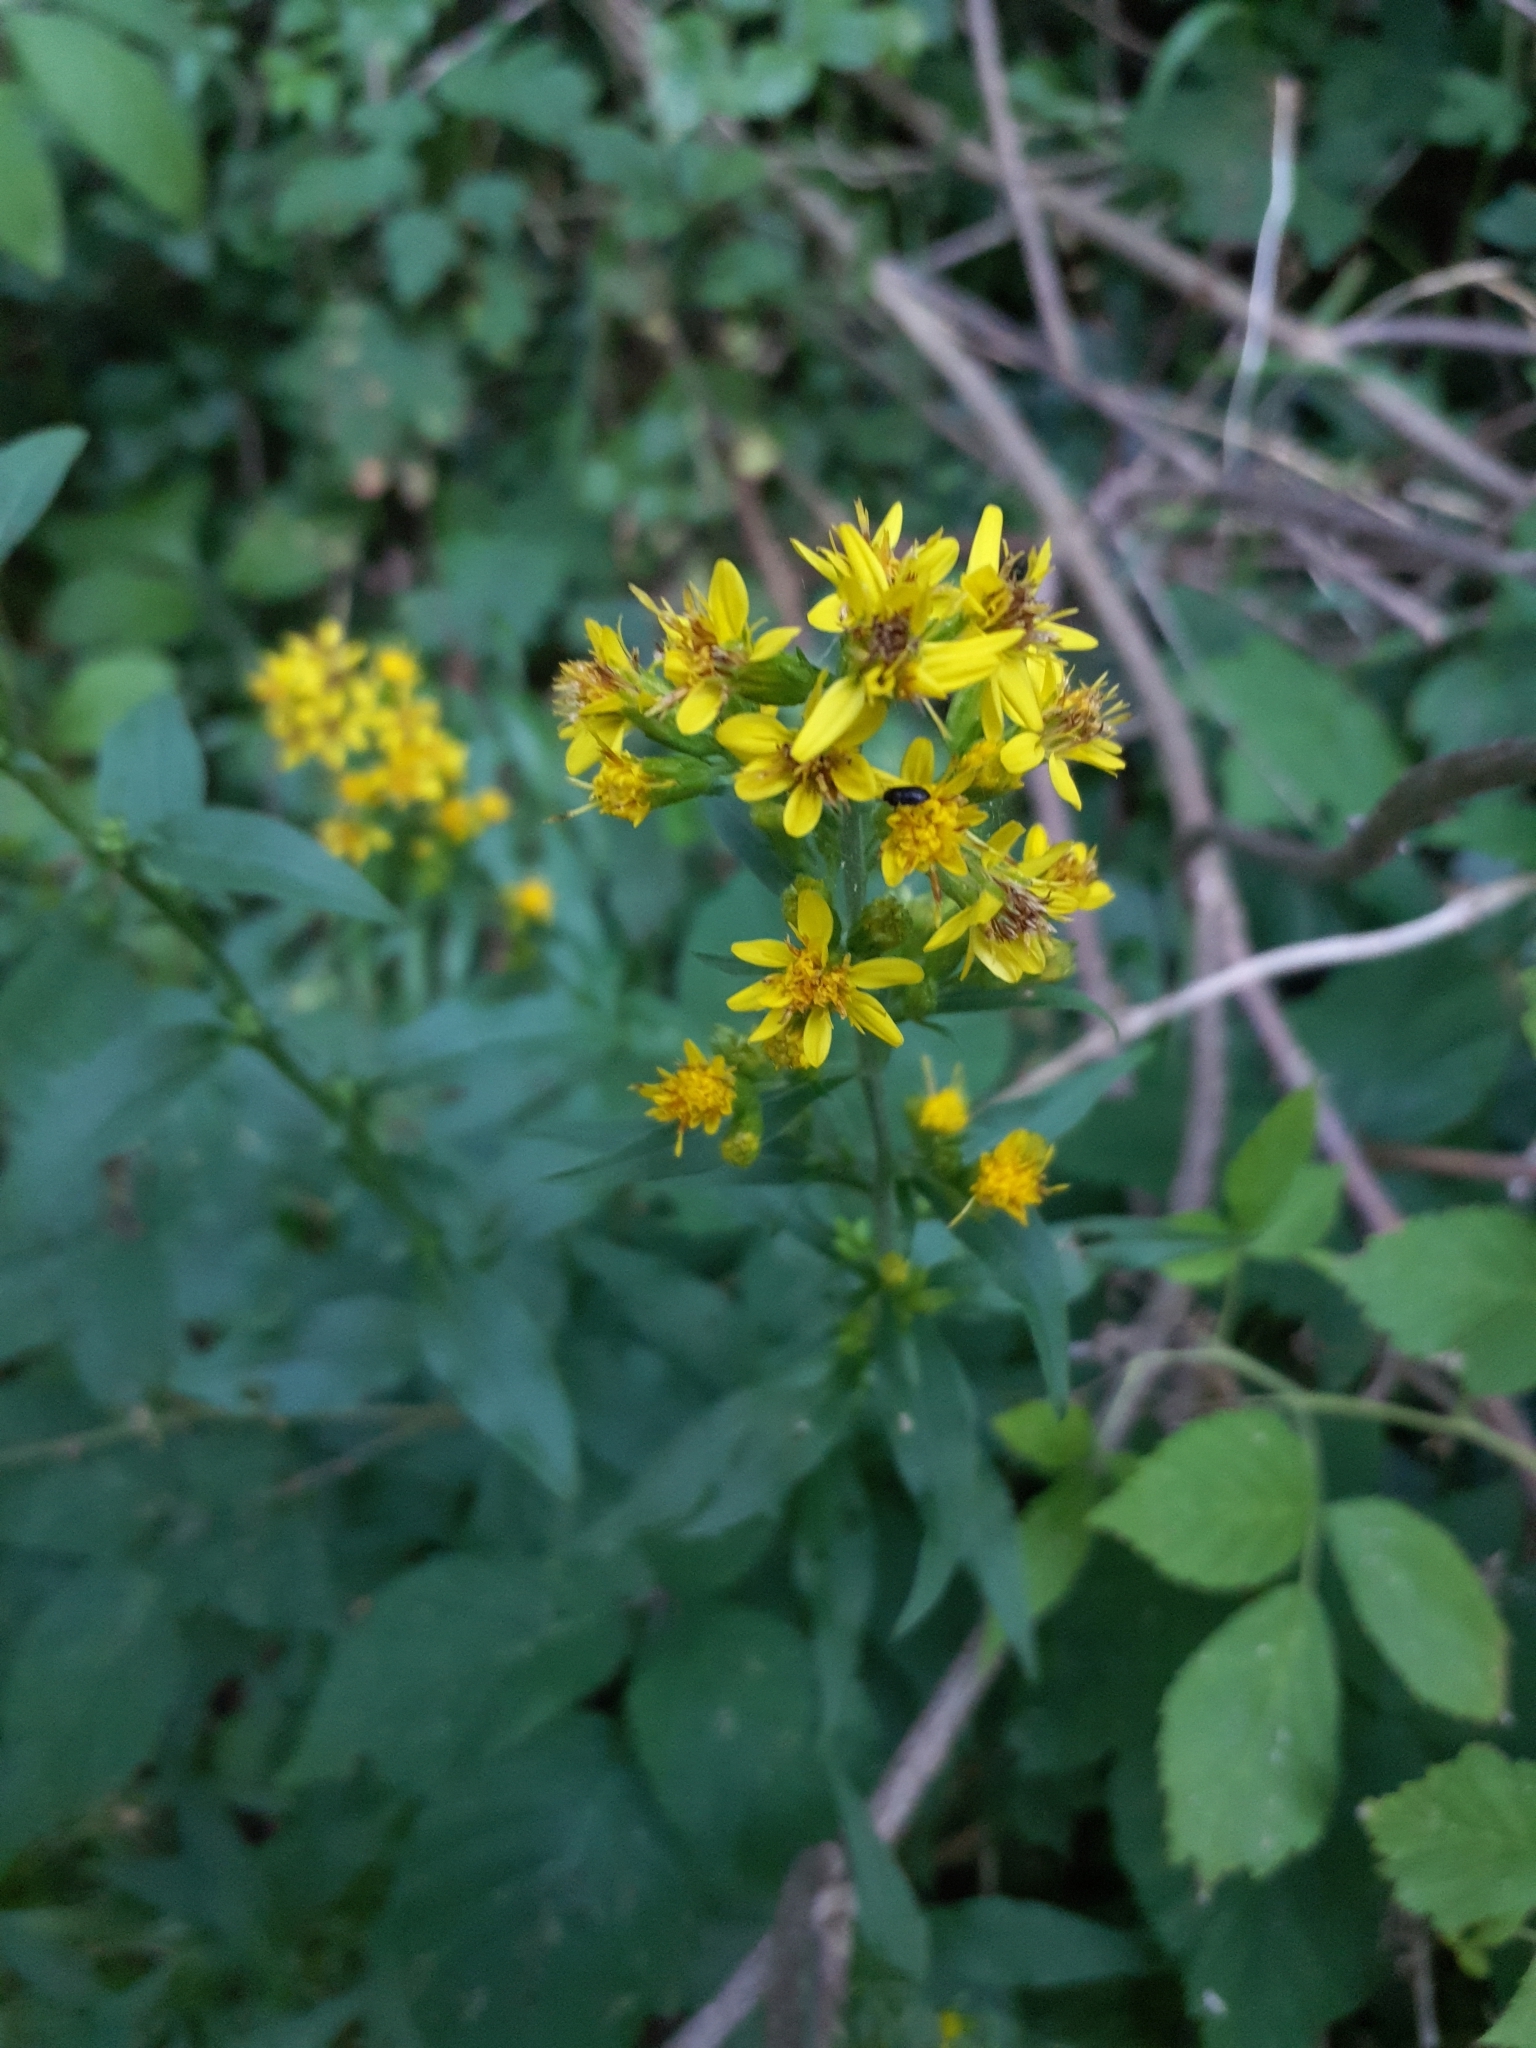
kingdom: Plantae
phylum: Tracheophyta
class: Magnoliopsida
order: Asterales
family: Asteraceae
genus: Solidago
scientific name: Solidago virgaurea
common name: Goldenrod
